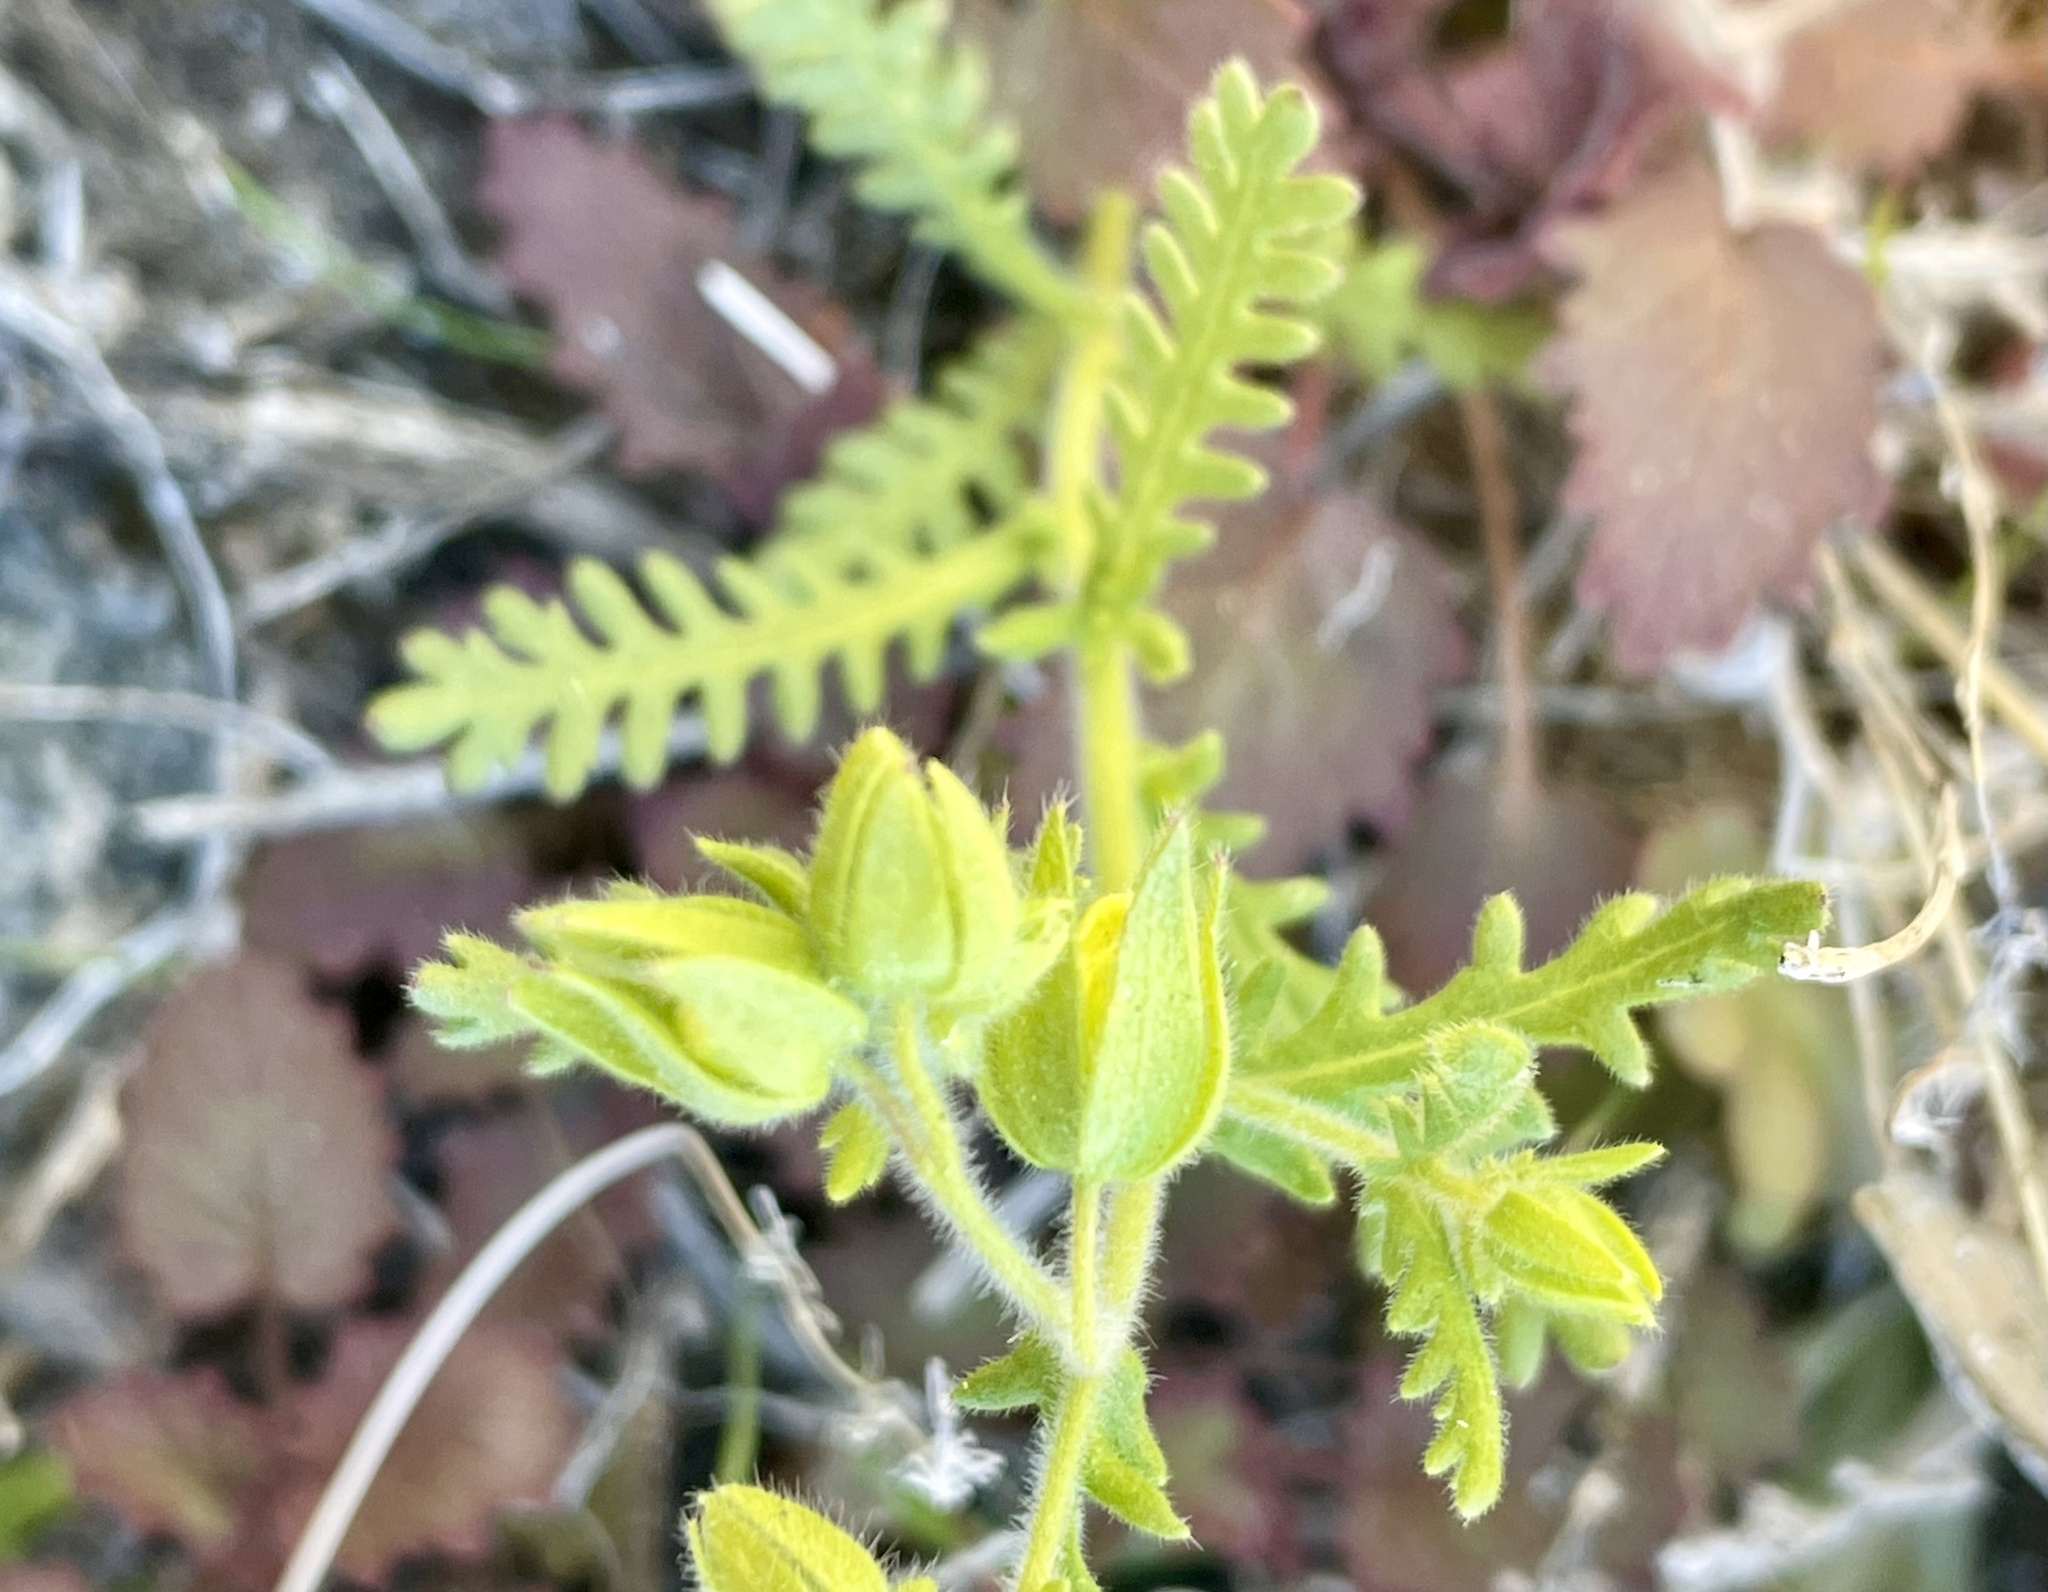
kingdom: Plantae
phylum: Tracheophyta
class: Magnoliopsida
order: Boraginales
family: Hydrophyllaceae
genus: Emmenanthe
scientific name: Emmenanthe penduliflora
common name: Whispering-bells
